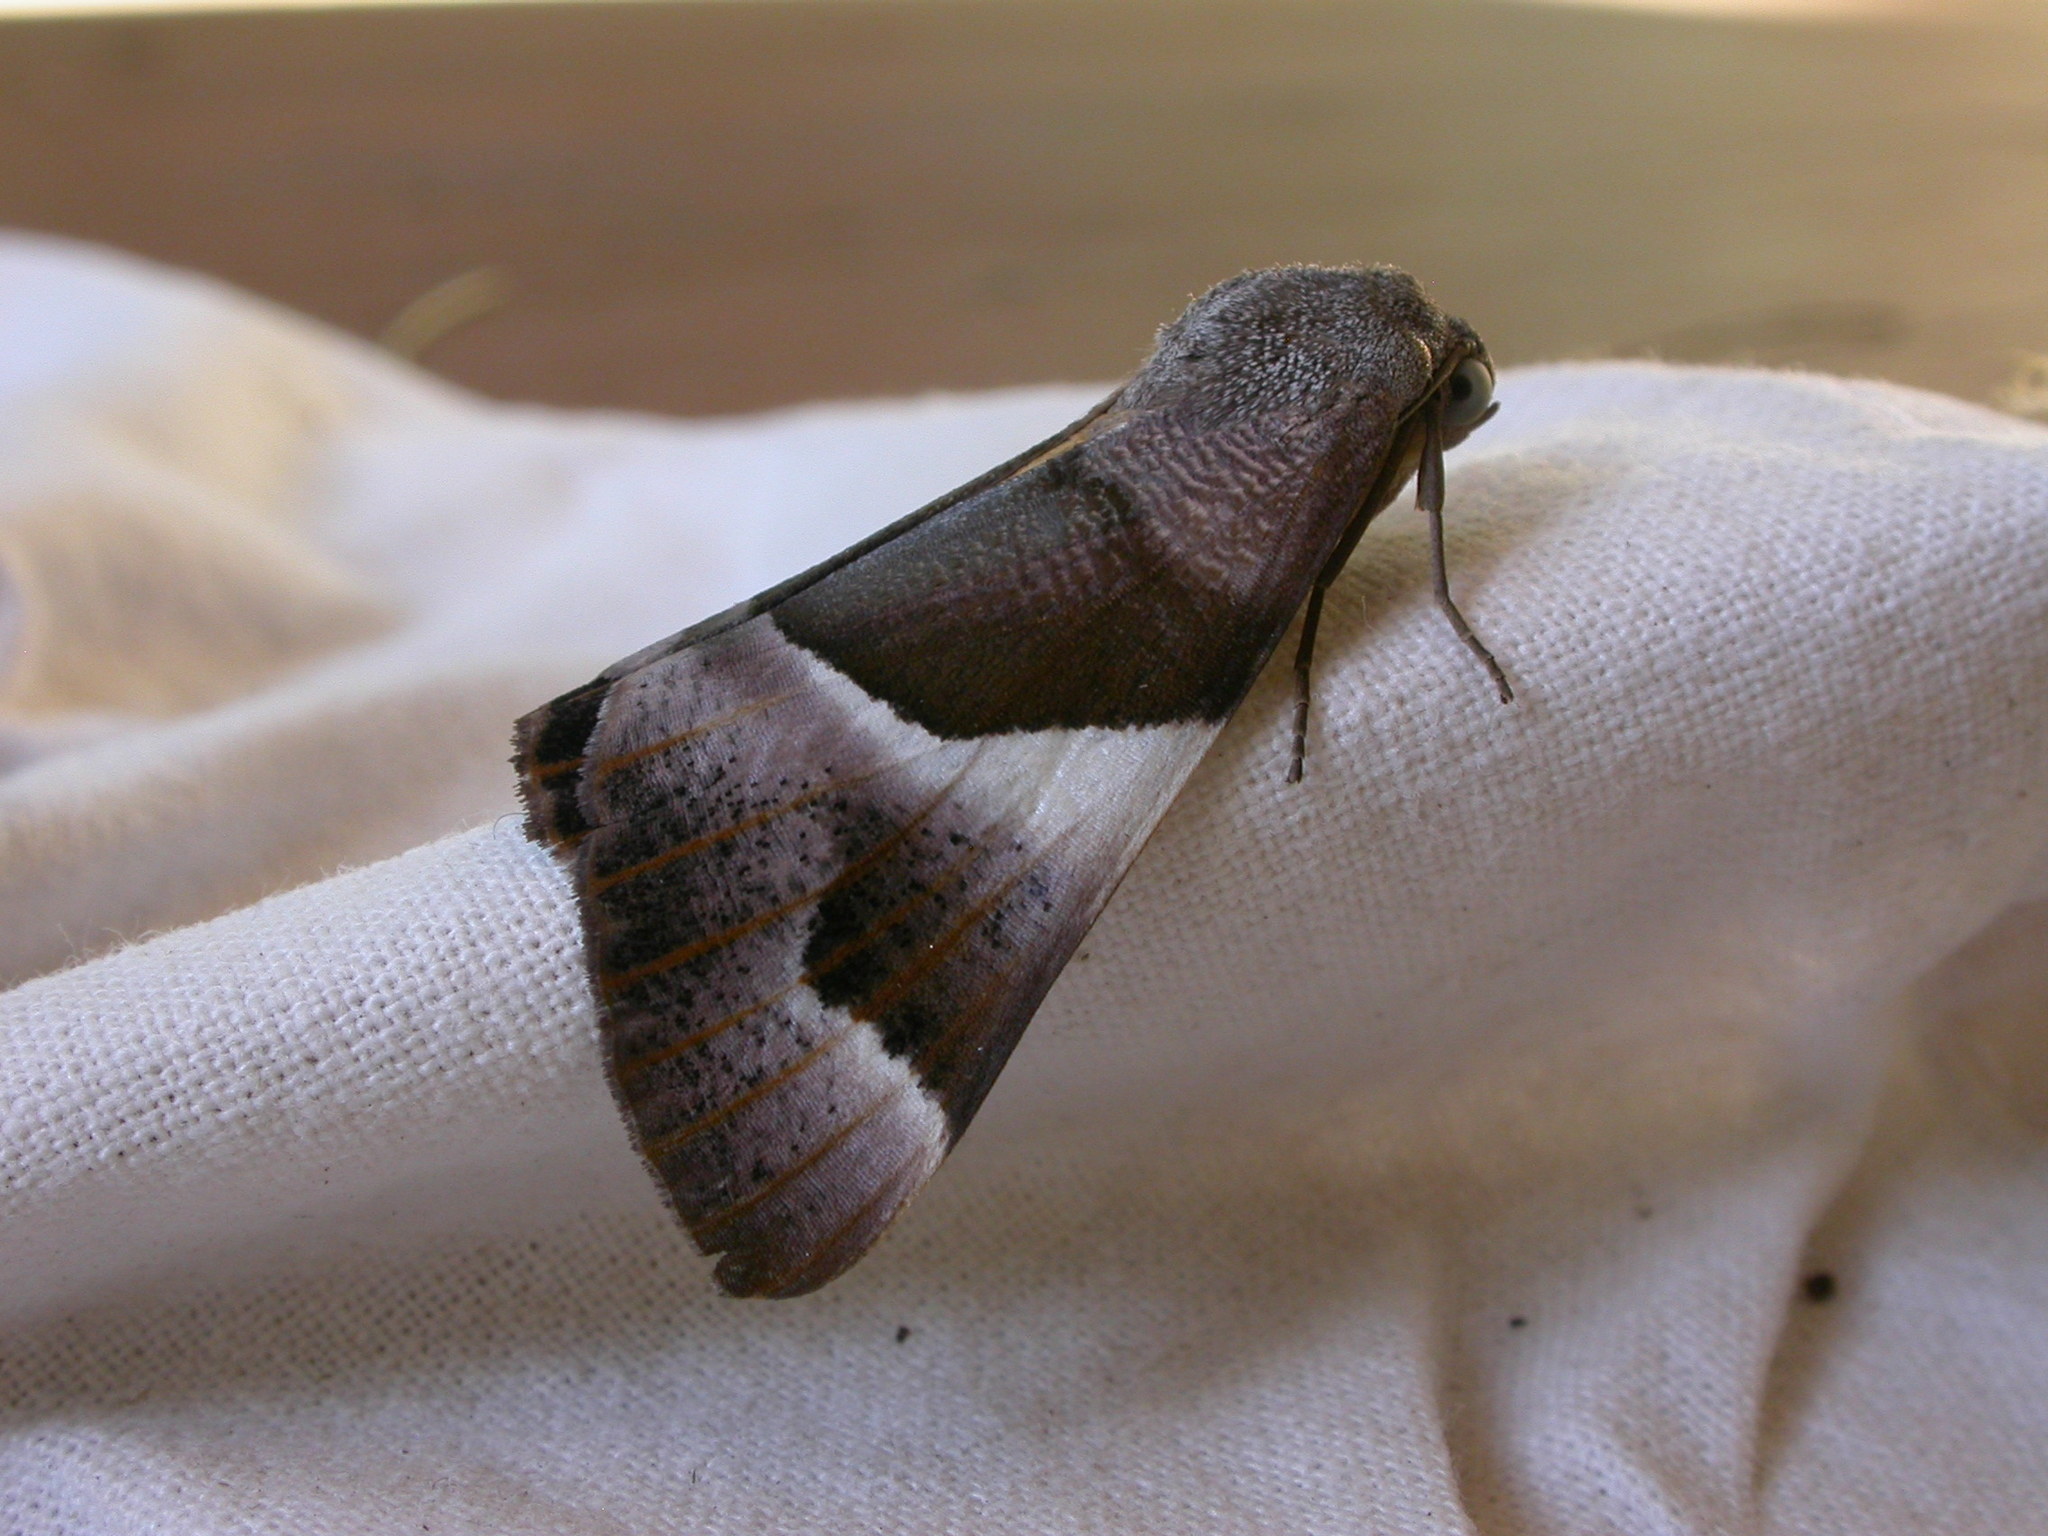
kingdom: Animalia
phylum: Arthropoda
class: Insecta
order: Lepidoptera
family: Geometridae
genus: Niceteria
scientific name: Niceteria macrocosma
